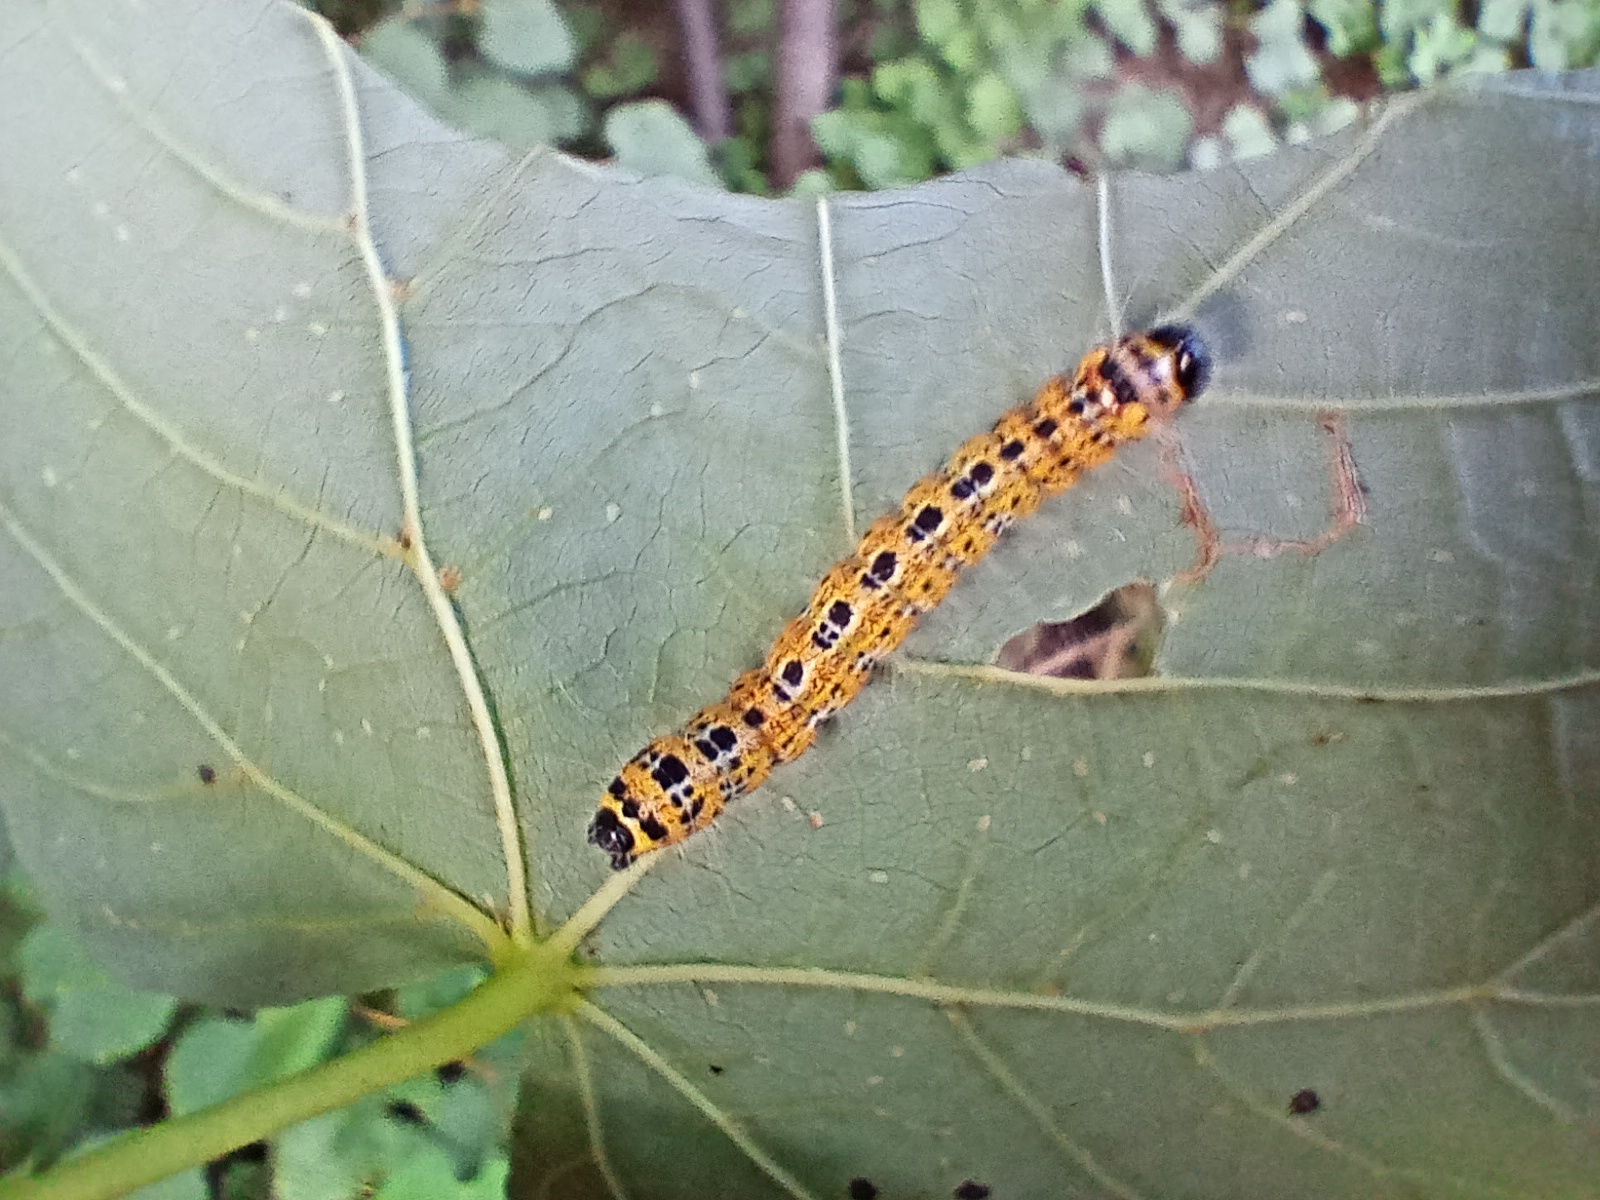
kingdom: Animalia
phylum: Arthropoda
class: Insecta
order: Lepidoptera
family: Notodontidae
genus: Phalera
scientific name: Phalera bucephala
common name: Buff-tip
